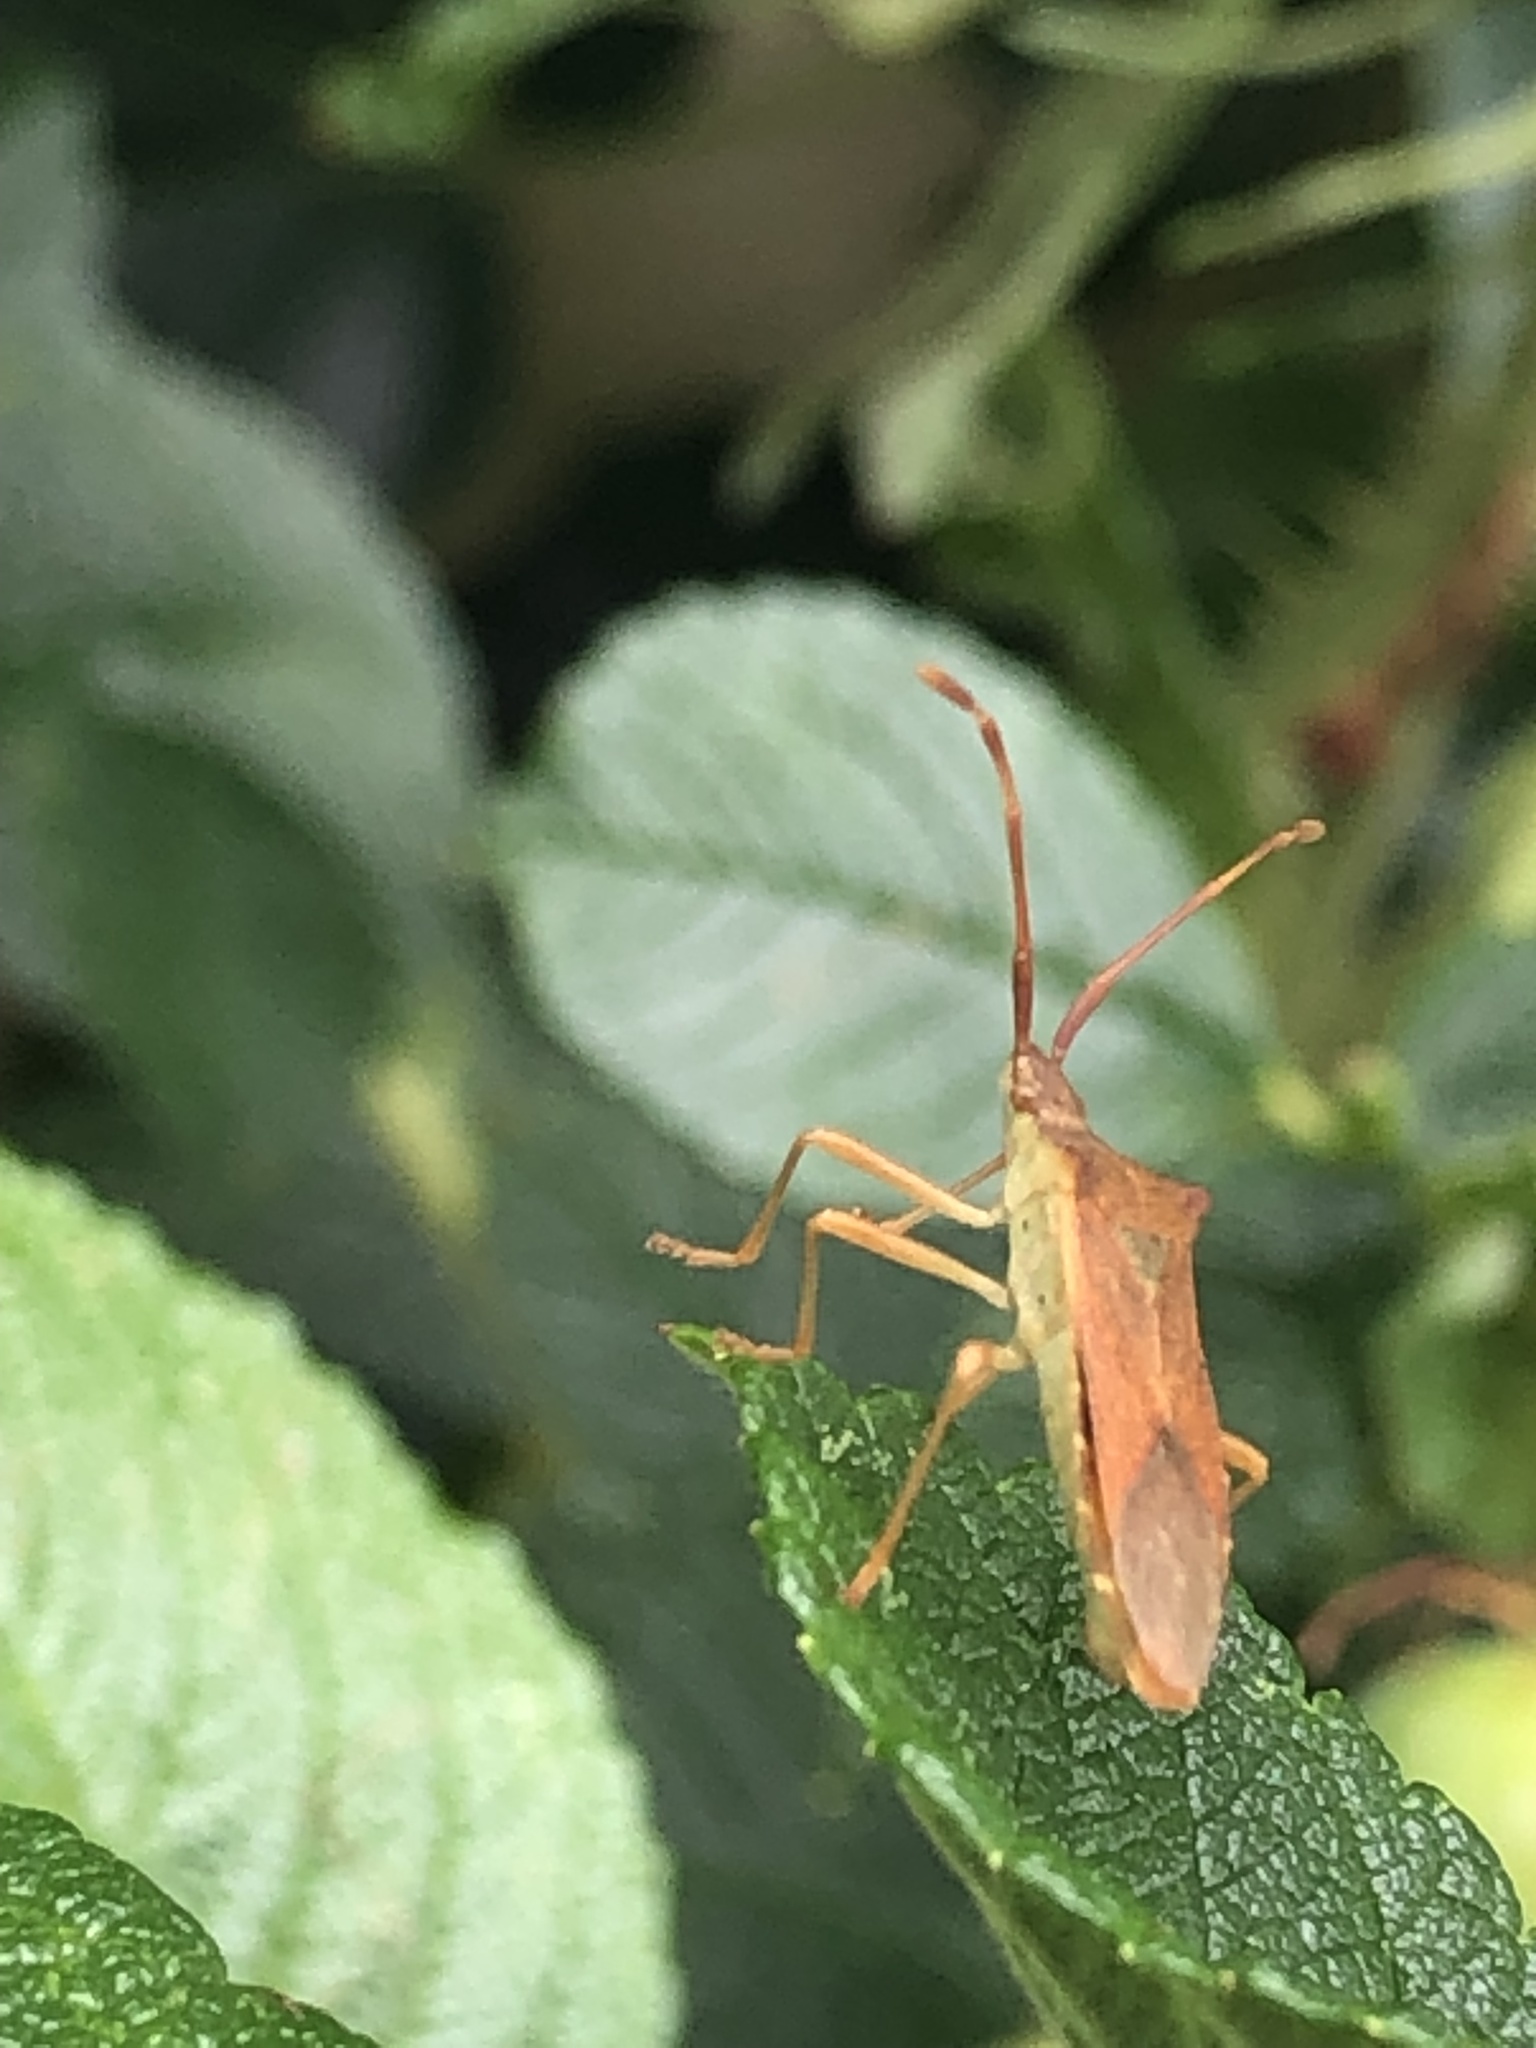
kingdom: Animalia
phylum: Arthropoda
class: Insecta
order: Hemiptera
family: Coreidae
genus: Gonocerus
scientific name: Gonocerus acuteangulatus
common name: Box bug
